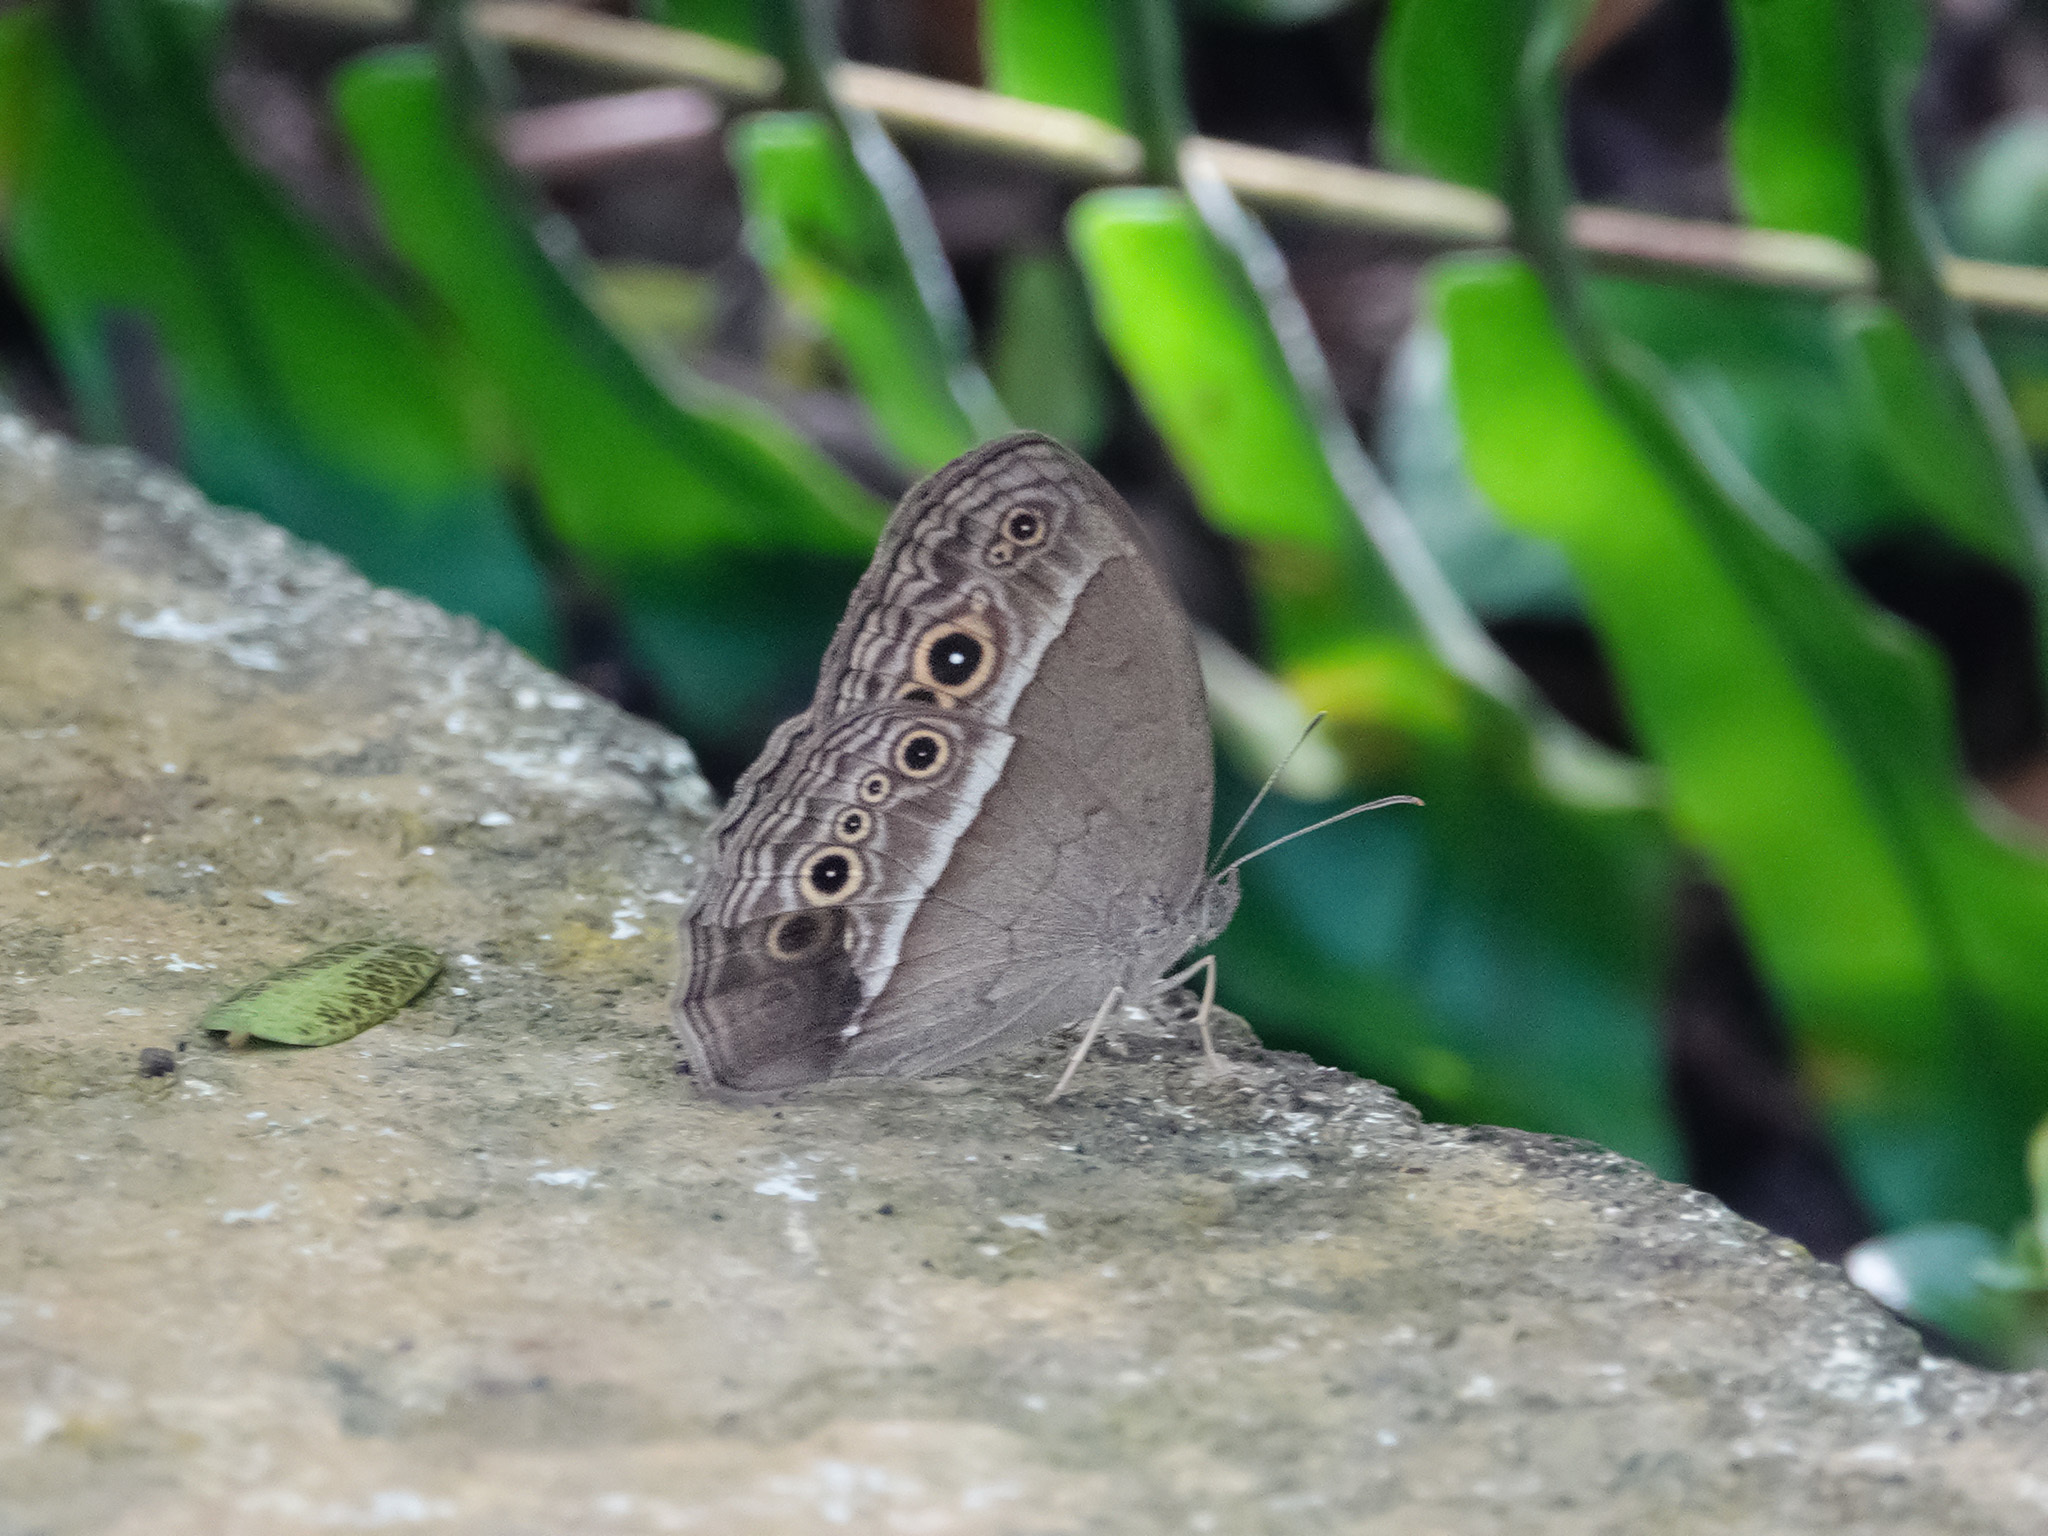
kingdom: Animalia
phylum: Arthropoda
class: Insecta
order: Lepidoptera
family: Nymphalidae
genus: Mycalesis
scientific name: Mycalesis perseoides
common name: Burmese bushbrown
